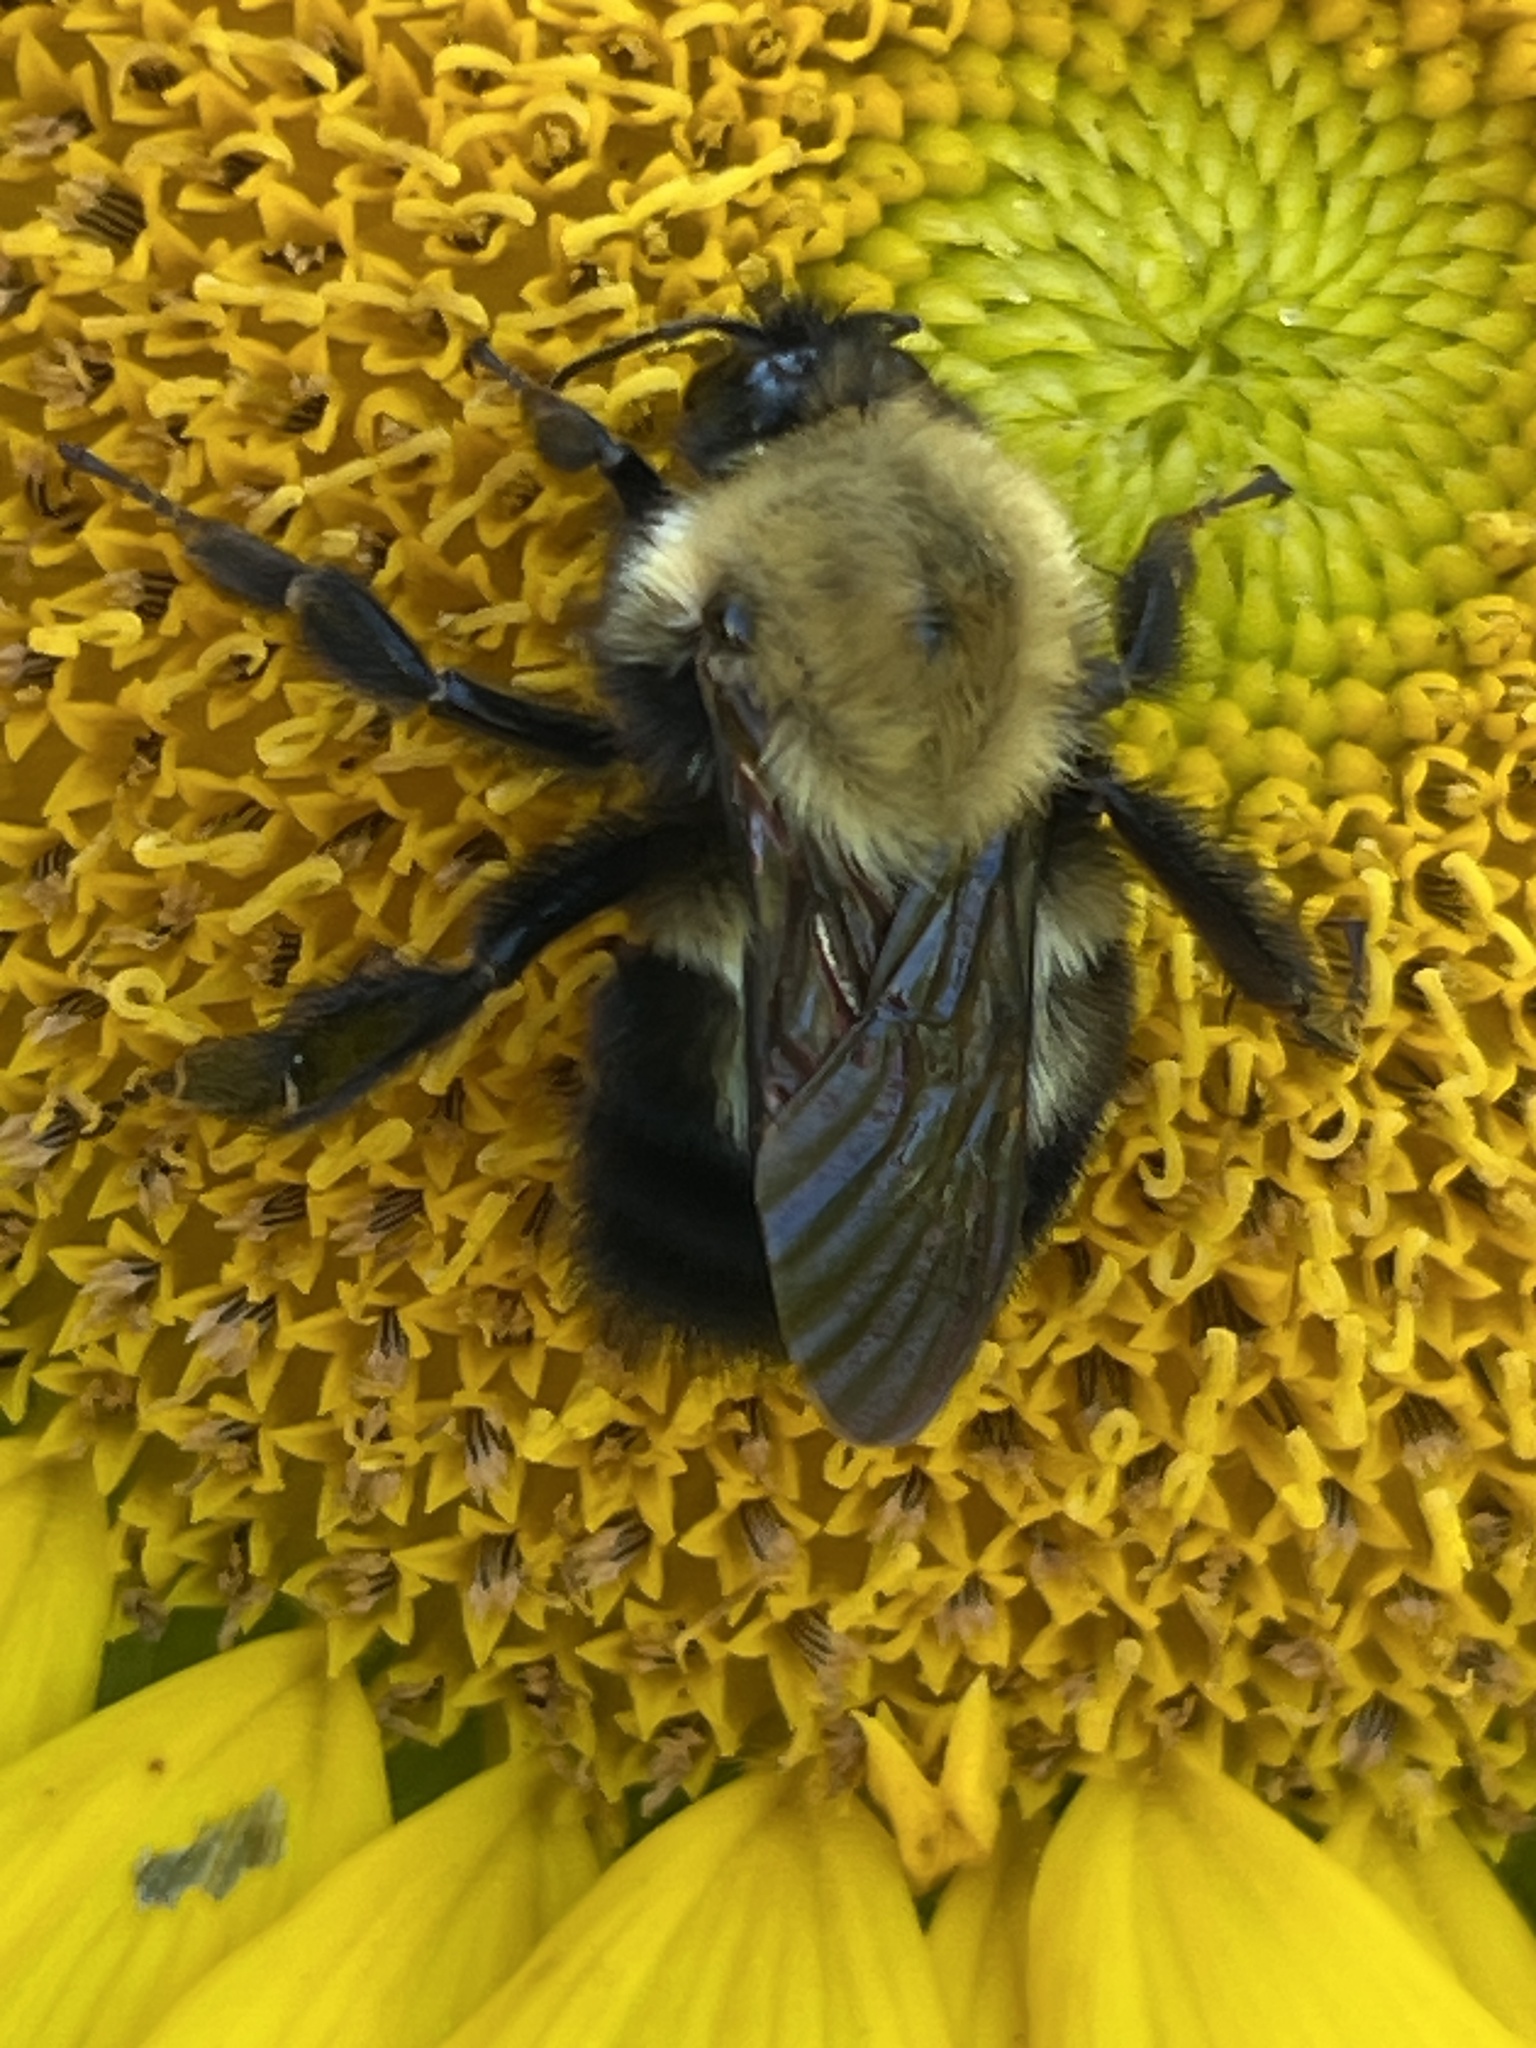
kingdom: Animalia
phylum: Arthropoda
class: Insecta
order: Hymenoptera
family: Apidae
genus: Bombus
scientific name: Bombus perplexus
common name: Confusing bumble bee
